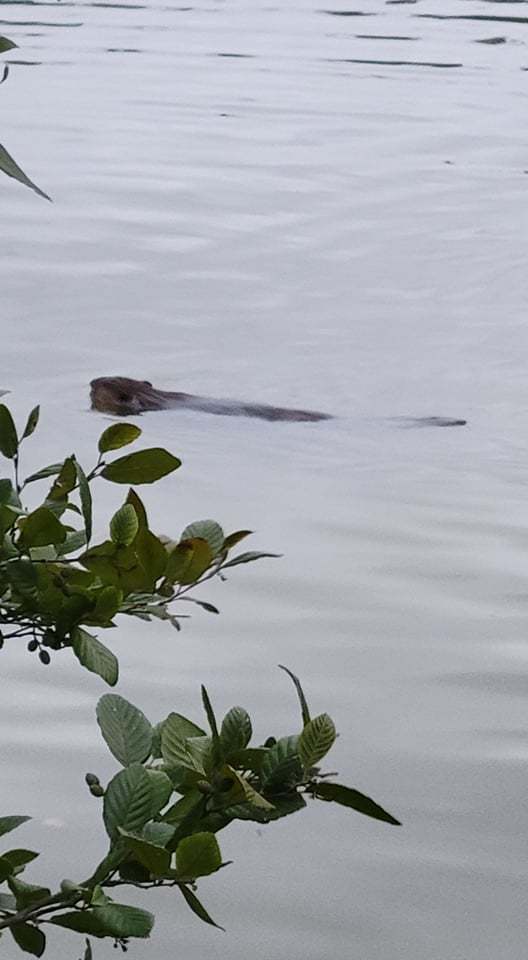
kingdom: Animalia
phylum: Chordata
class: Mammalia
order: Rodentia
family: Castoridae
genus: Castor
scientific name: Castor canadensis
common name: American beaver
